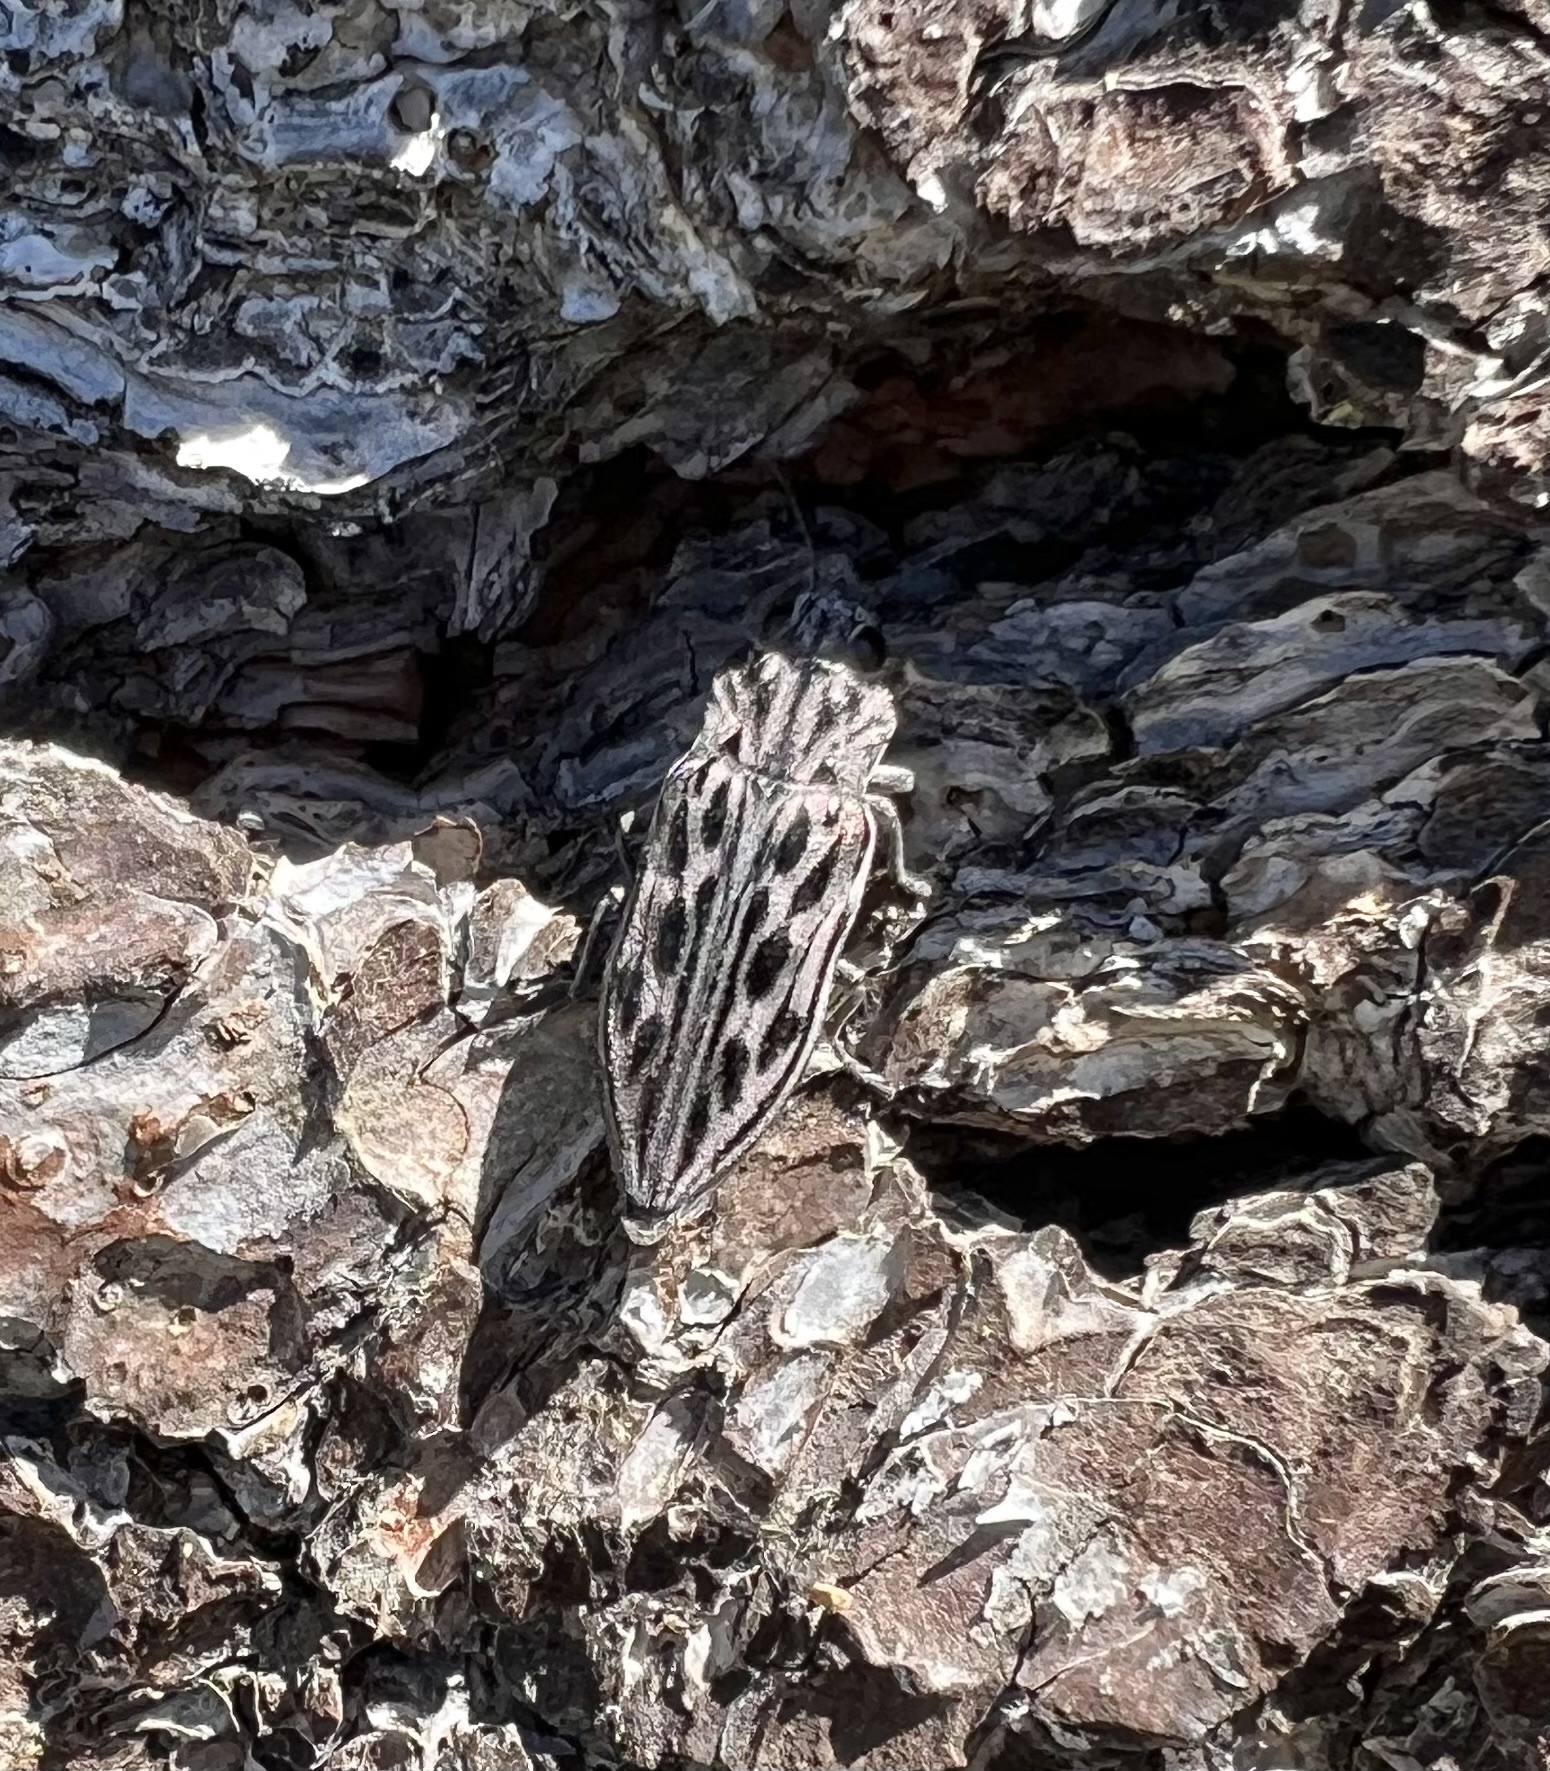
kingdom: Animalia
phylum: Arthropoda
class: Insecta
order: Coleoptera
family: Buprestidae
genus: Chalcophora
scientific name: Chalcophora angulicollis
